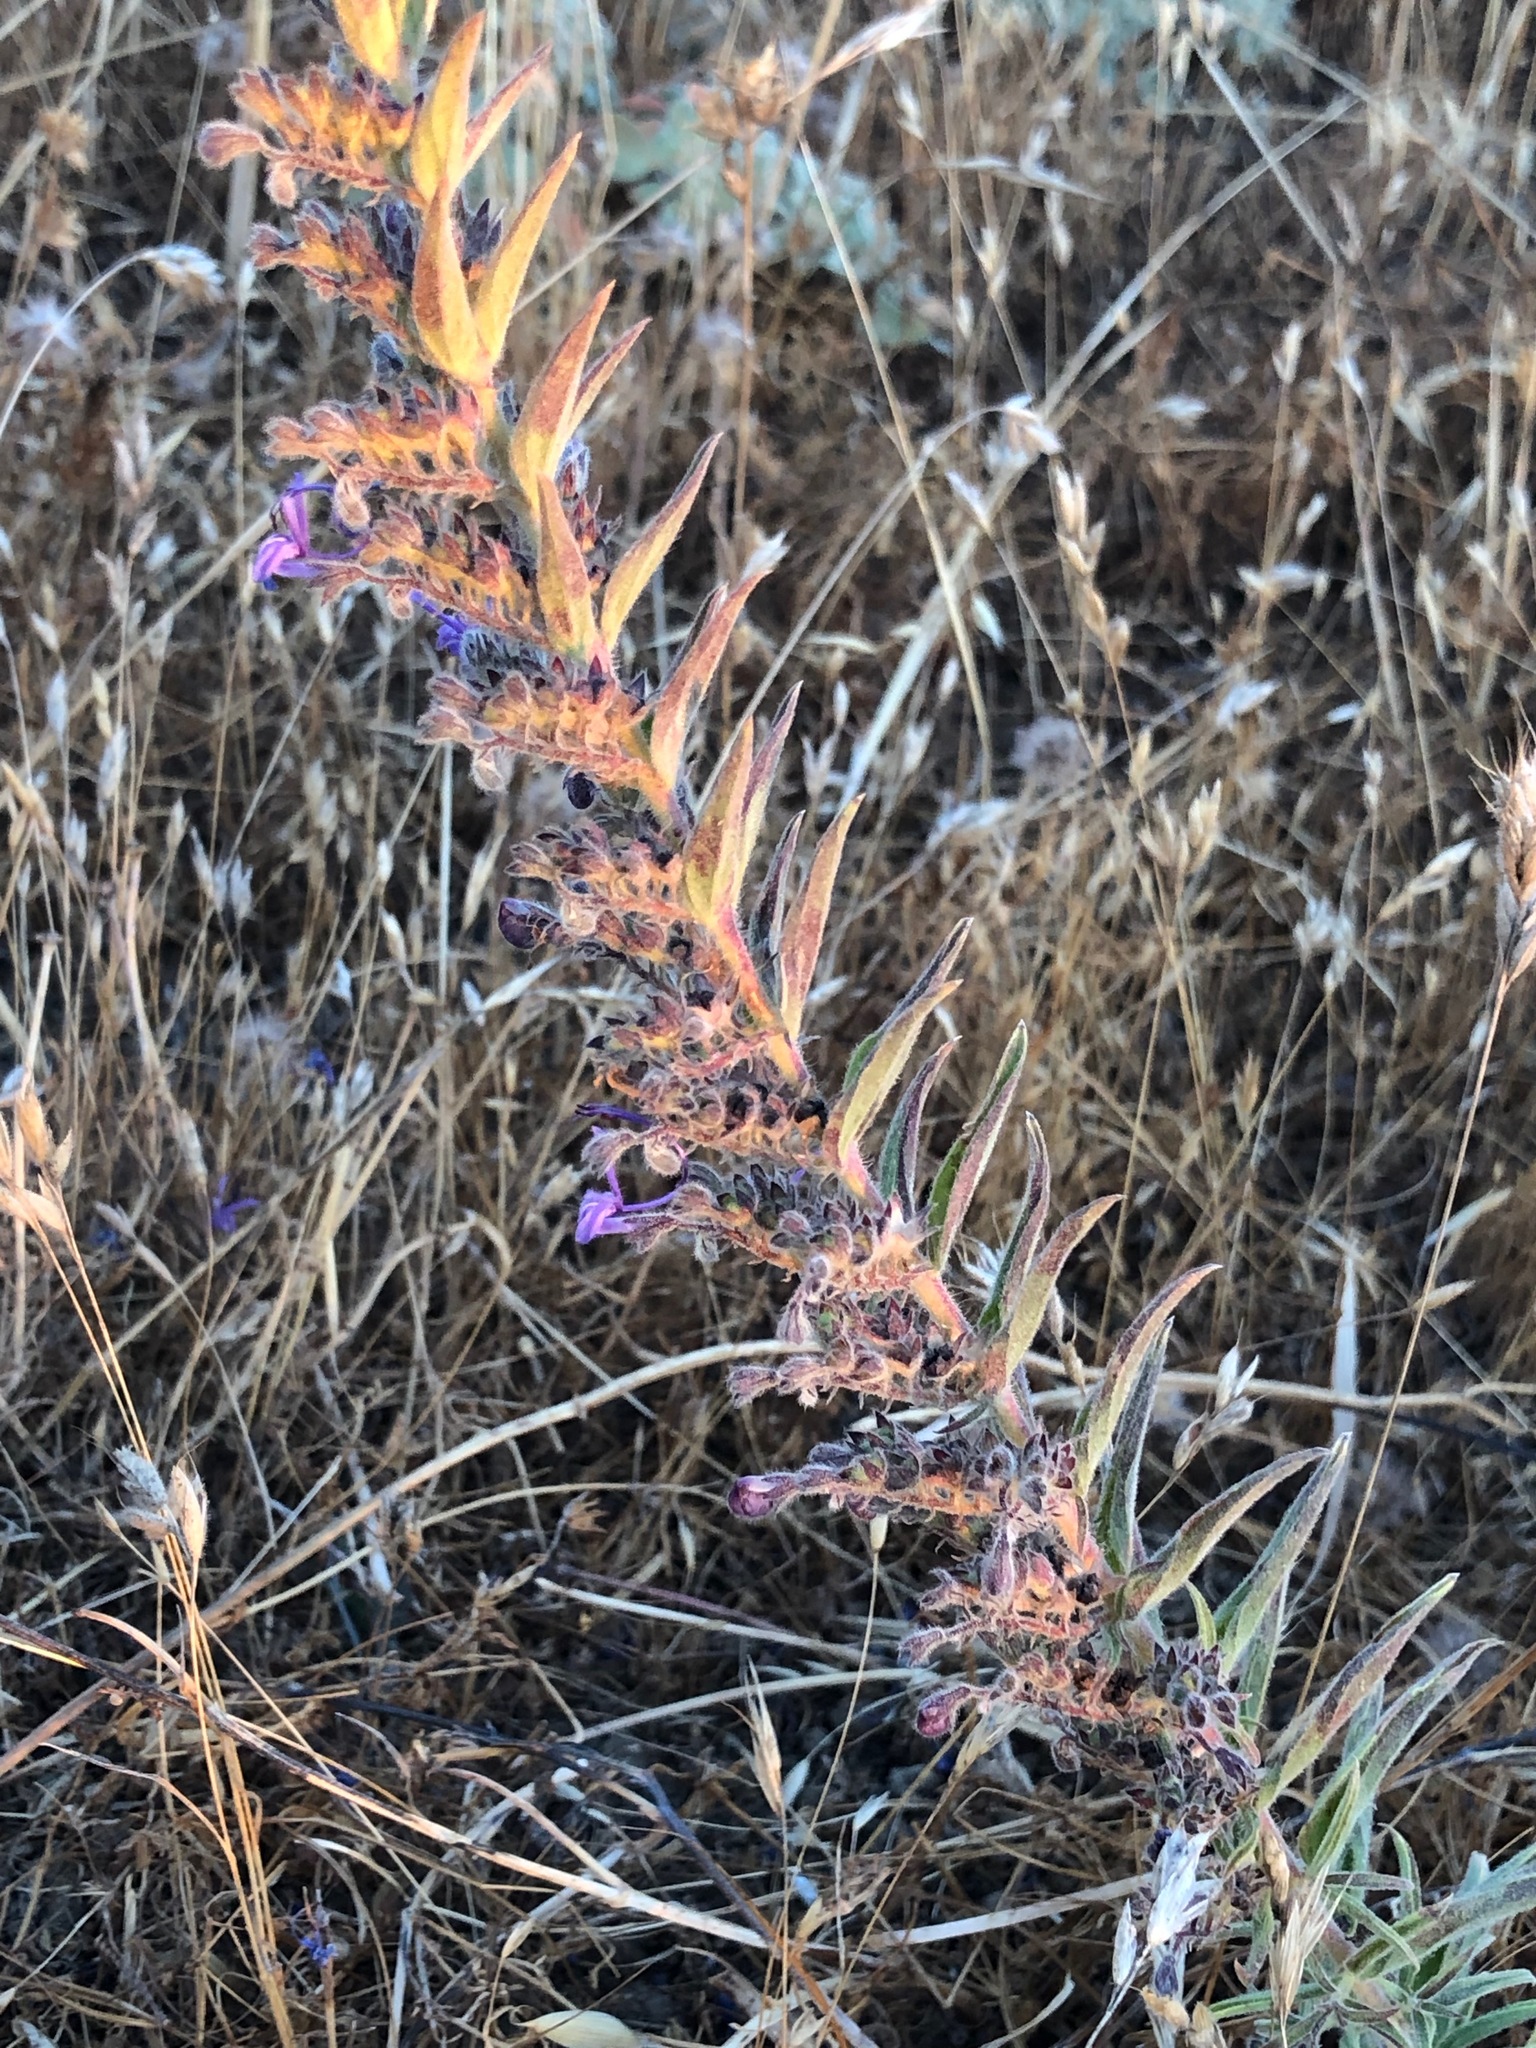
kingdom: Plantae
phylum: Tracheophyta
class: Magnoliopsida
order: Lamiales
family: Lamiaceae
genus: Trichostema
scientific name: Trichostema lanceolatum
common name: Vinegar-weed
